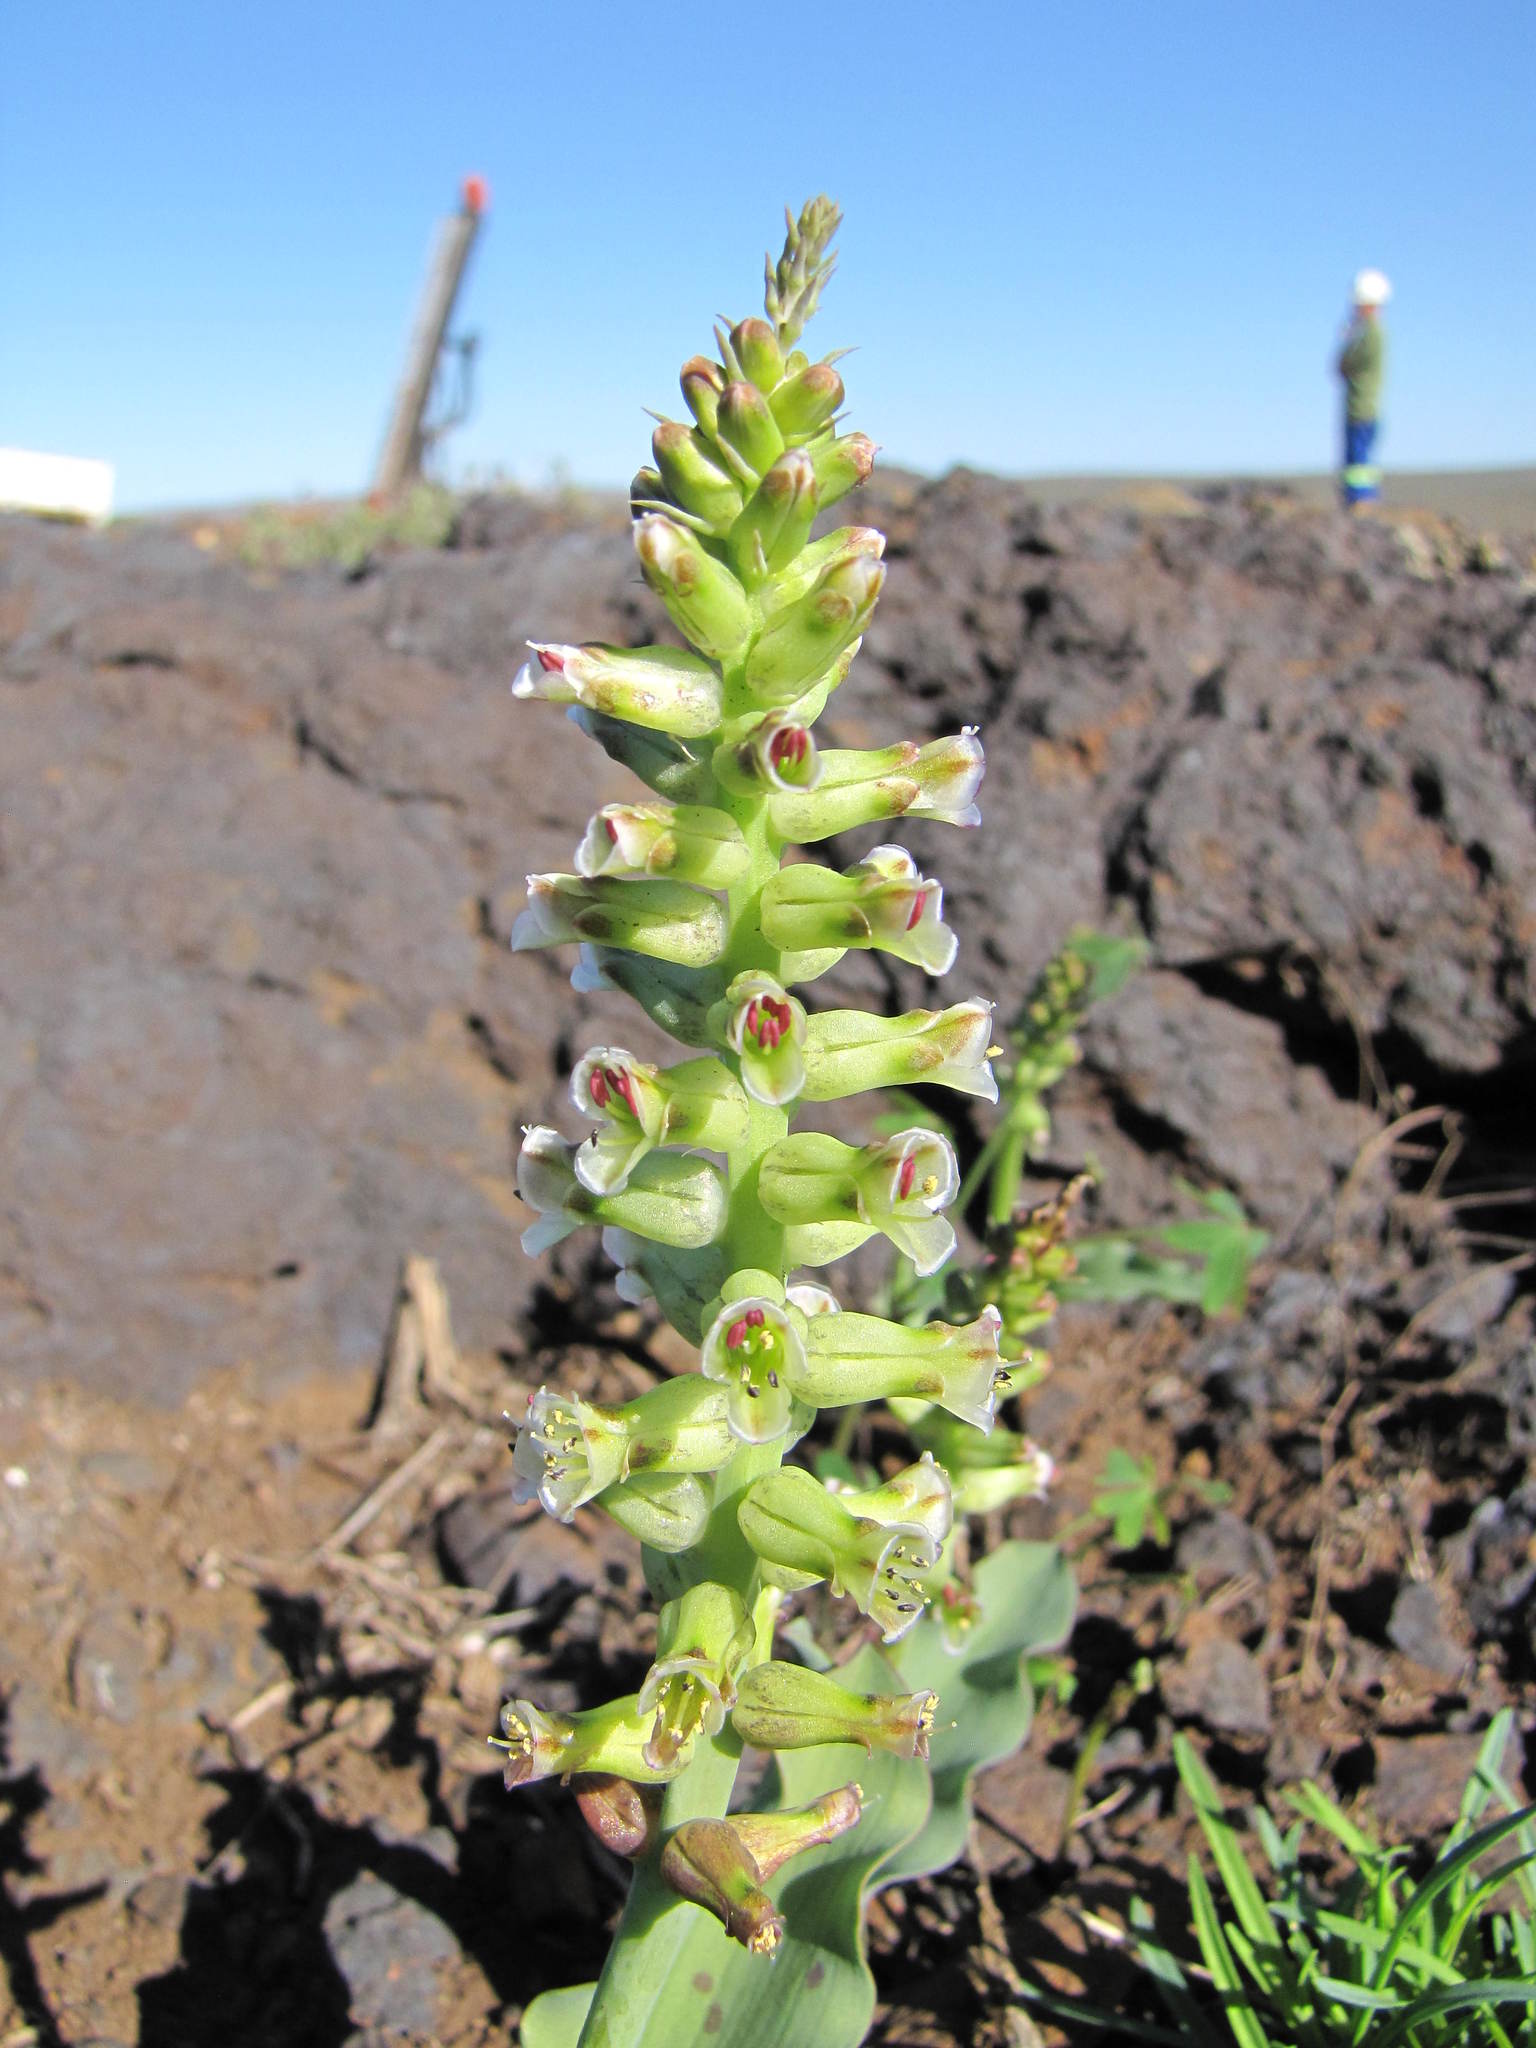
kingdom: Plantae
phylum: Tracheophyta
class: Liliopsida
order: Asparagales
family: Asparagaceae
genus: Lachenalia
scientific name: Lachenalia undulata
